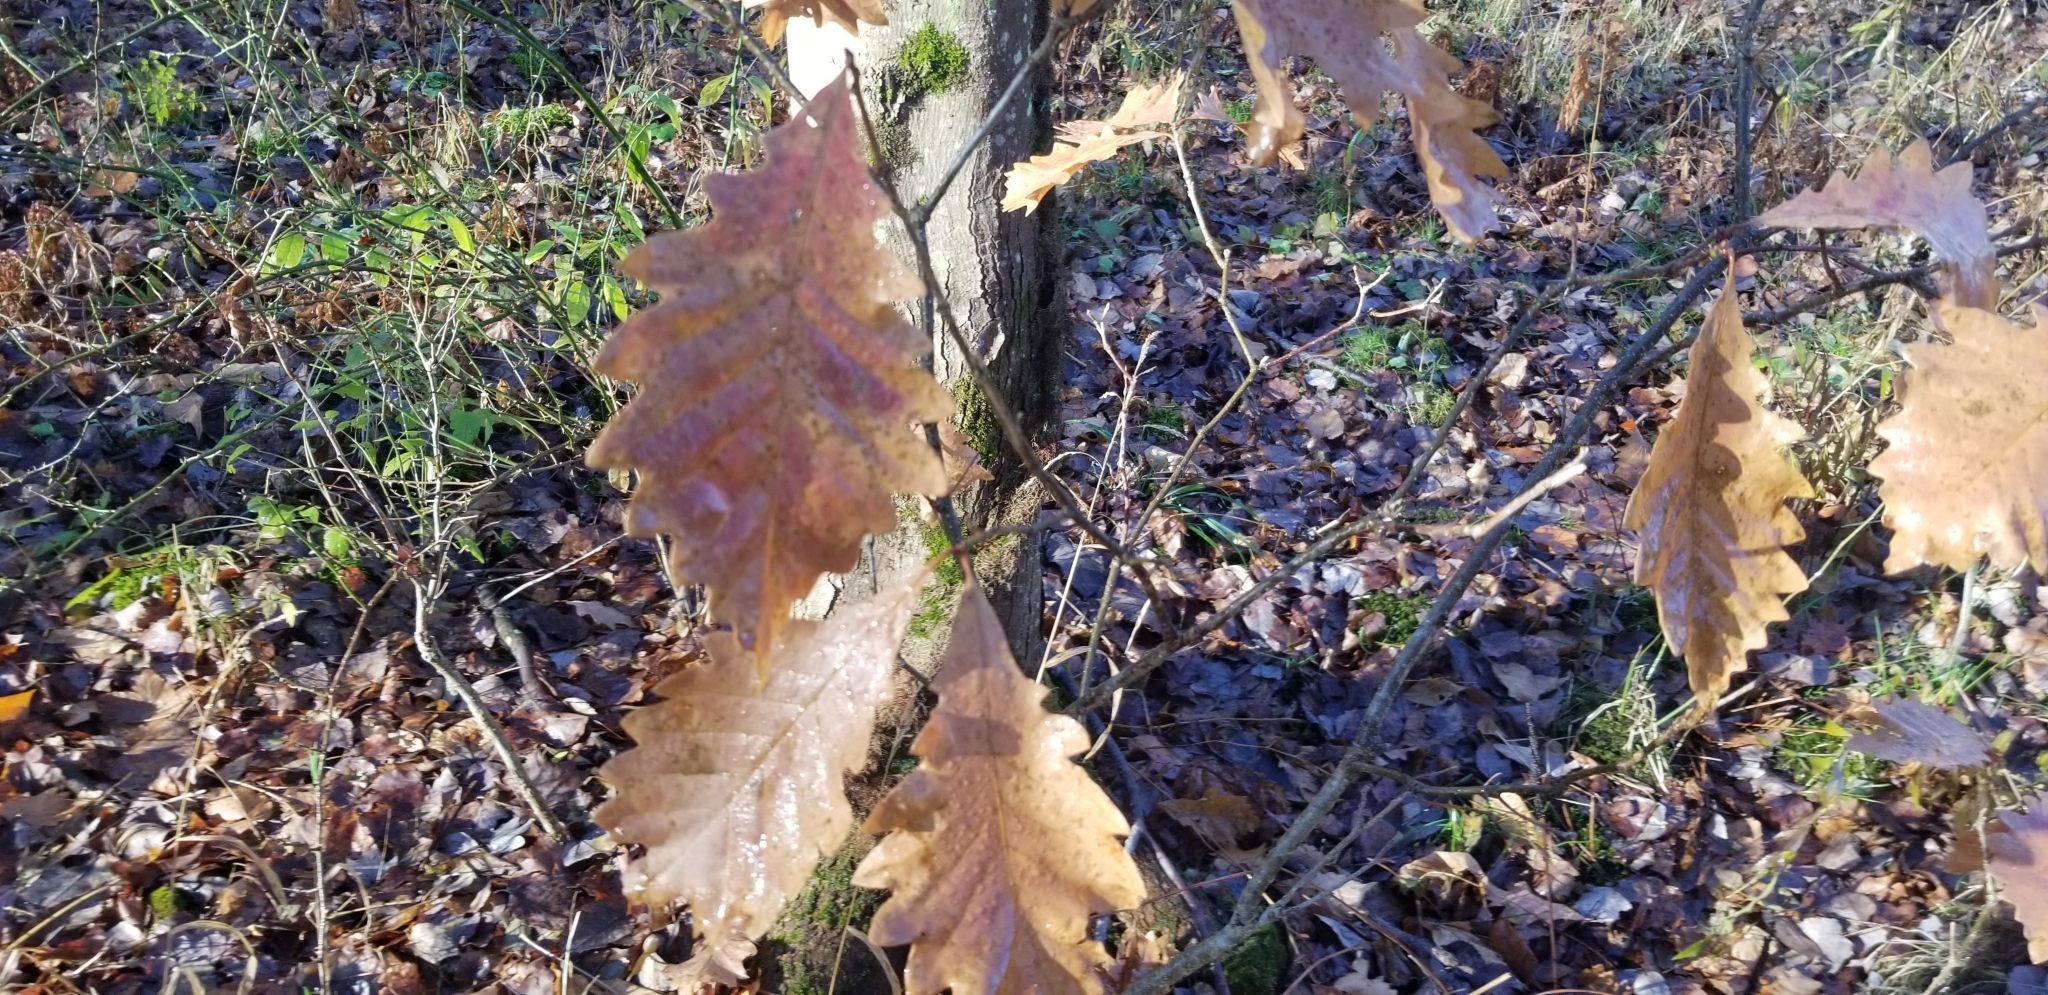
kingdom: Plantae
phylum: Tracheophyta
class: Magnoliopsida
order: Fagales
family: Fagaceae
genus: Quercus
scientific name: Quercus montana
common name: Chestnut oak
